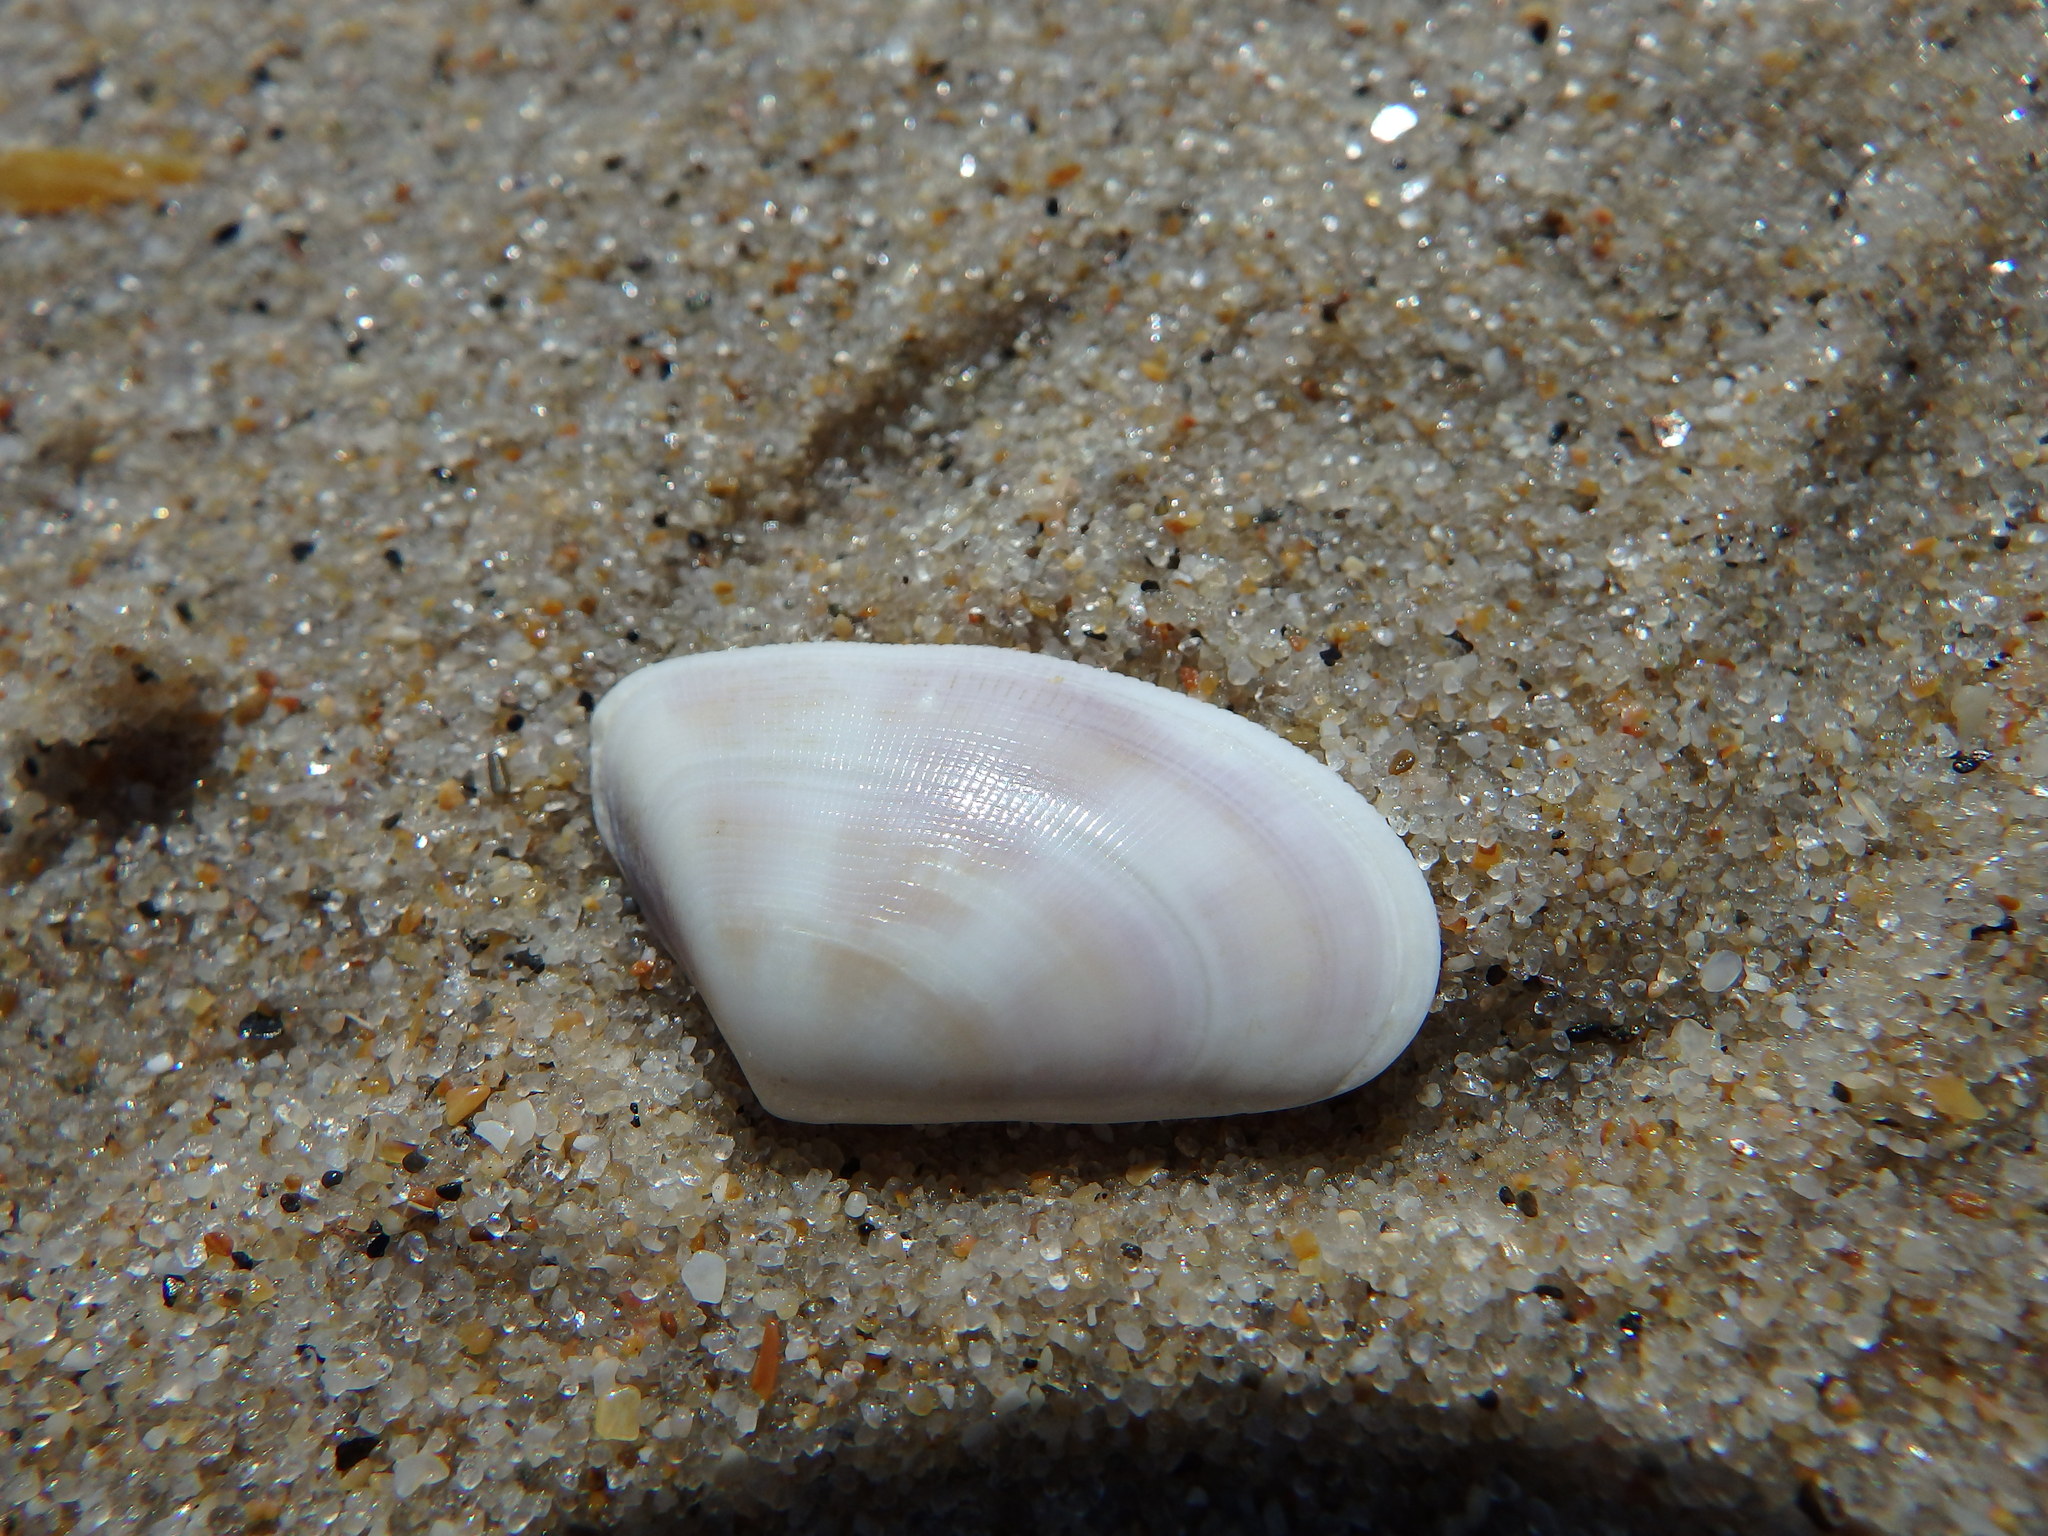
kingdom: Animalia
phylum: Mollusca
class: Bivalvia
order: Cardiida
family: Donacidae
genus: Donax
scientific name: Donax vittatus
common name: Banded wedge-shell
